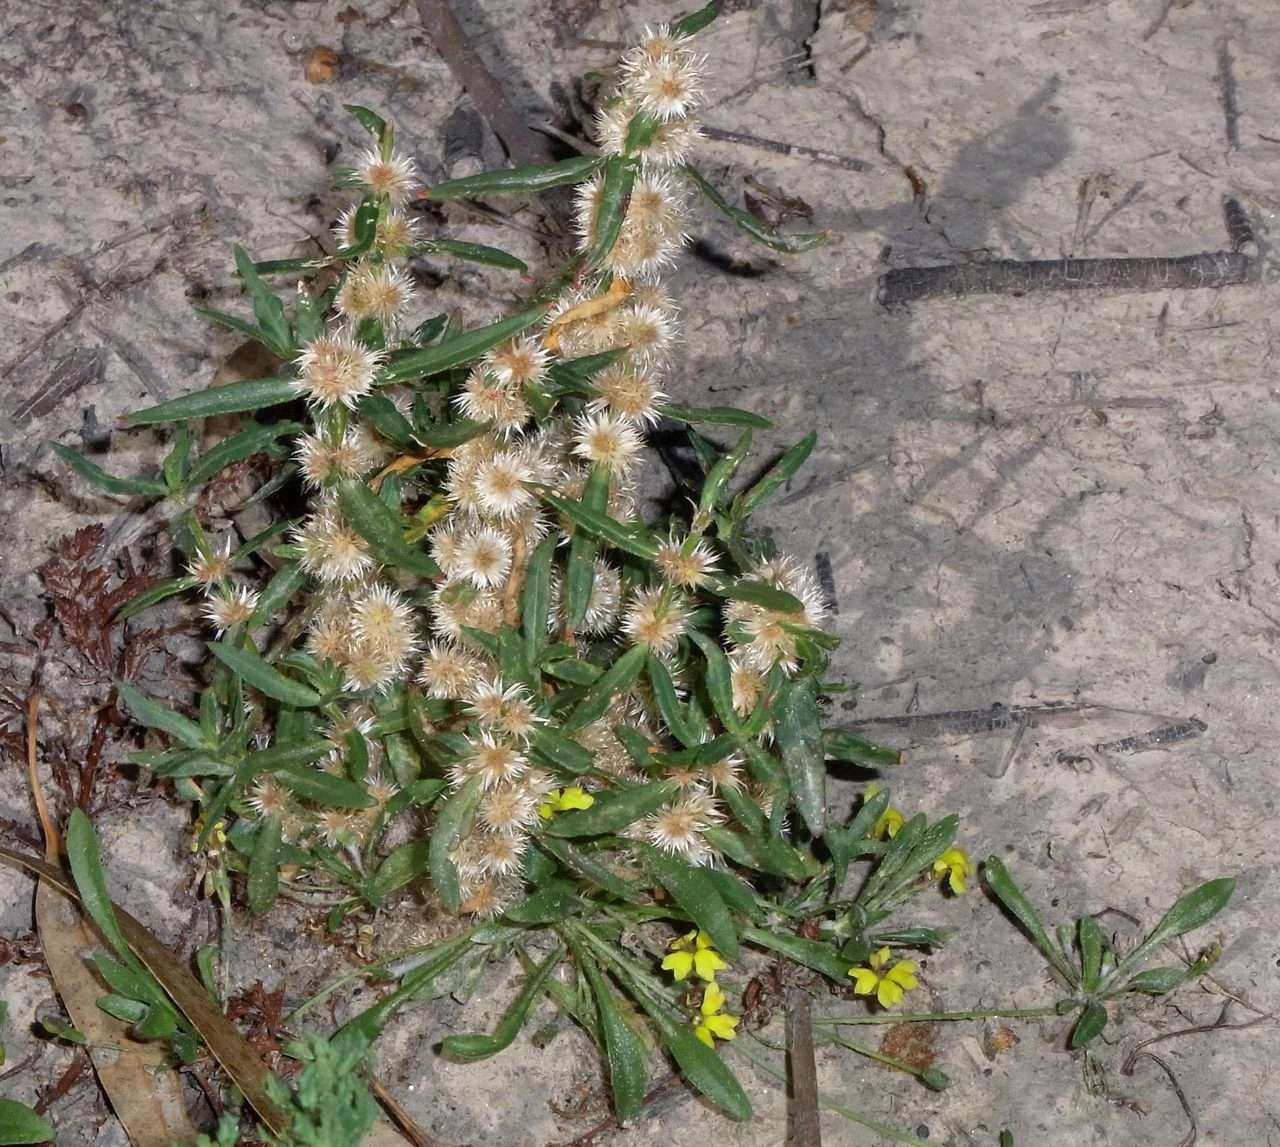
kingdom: Plantae
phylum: Tracheophyta
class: Magnoliopsida
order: Asterales
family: Goodeniaceae
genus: Goodenia
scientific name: Goodenia heteromera
